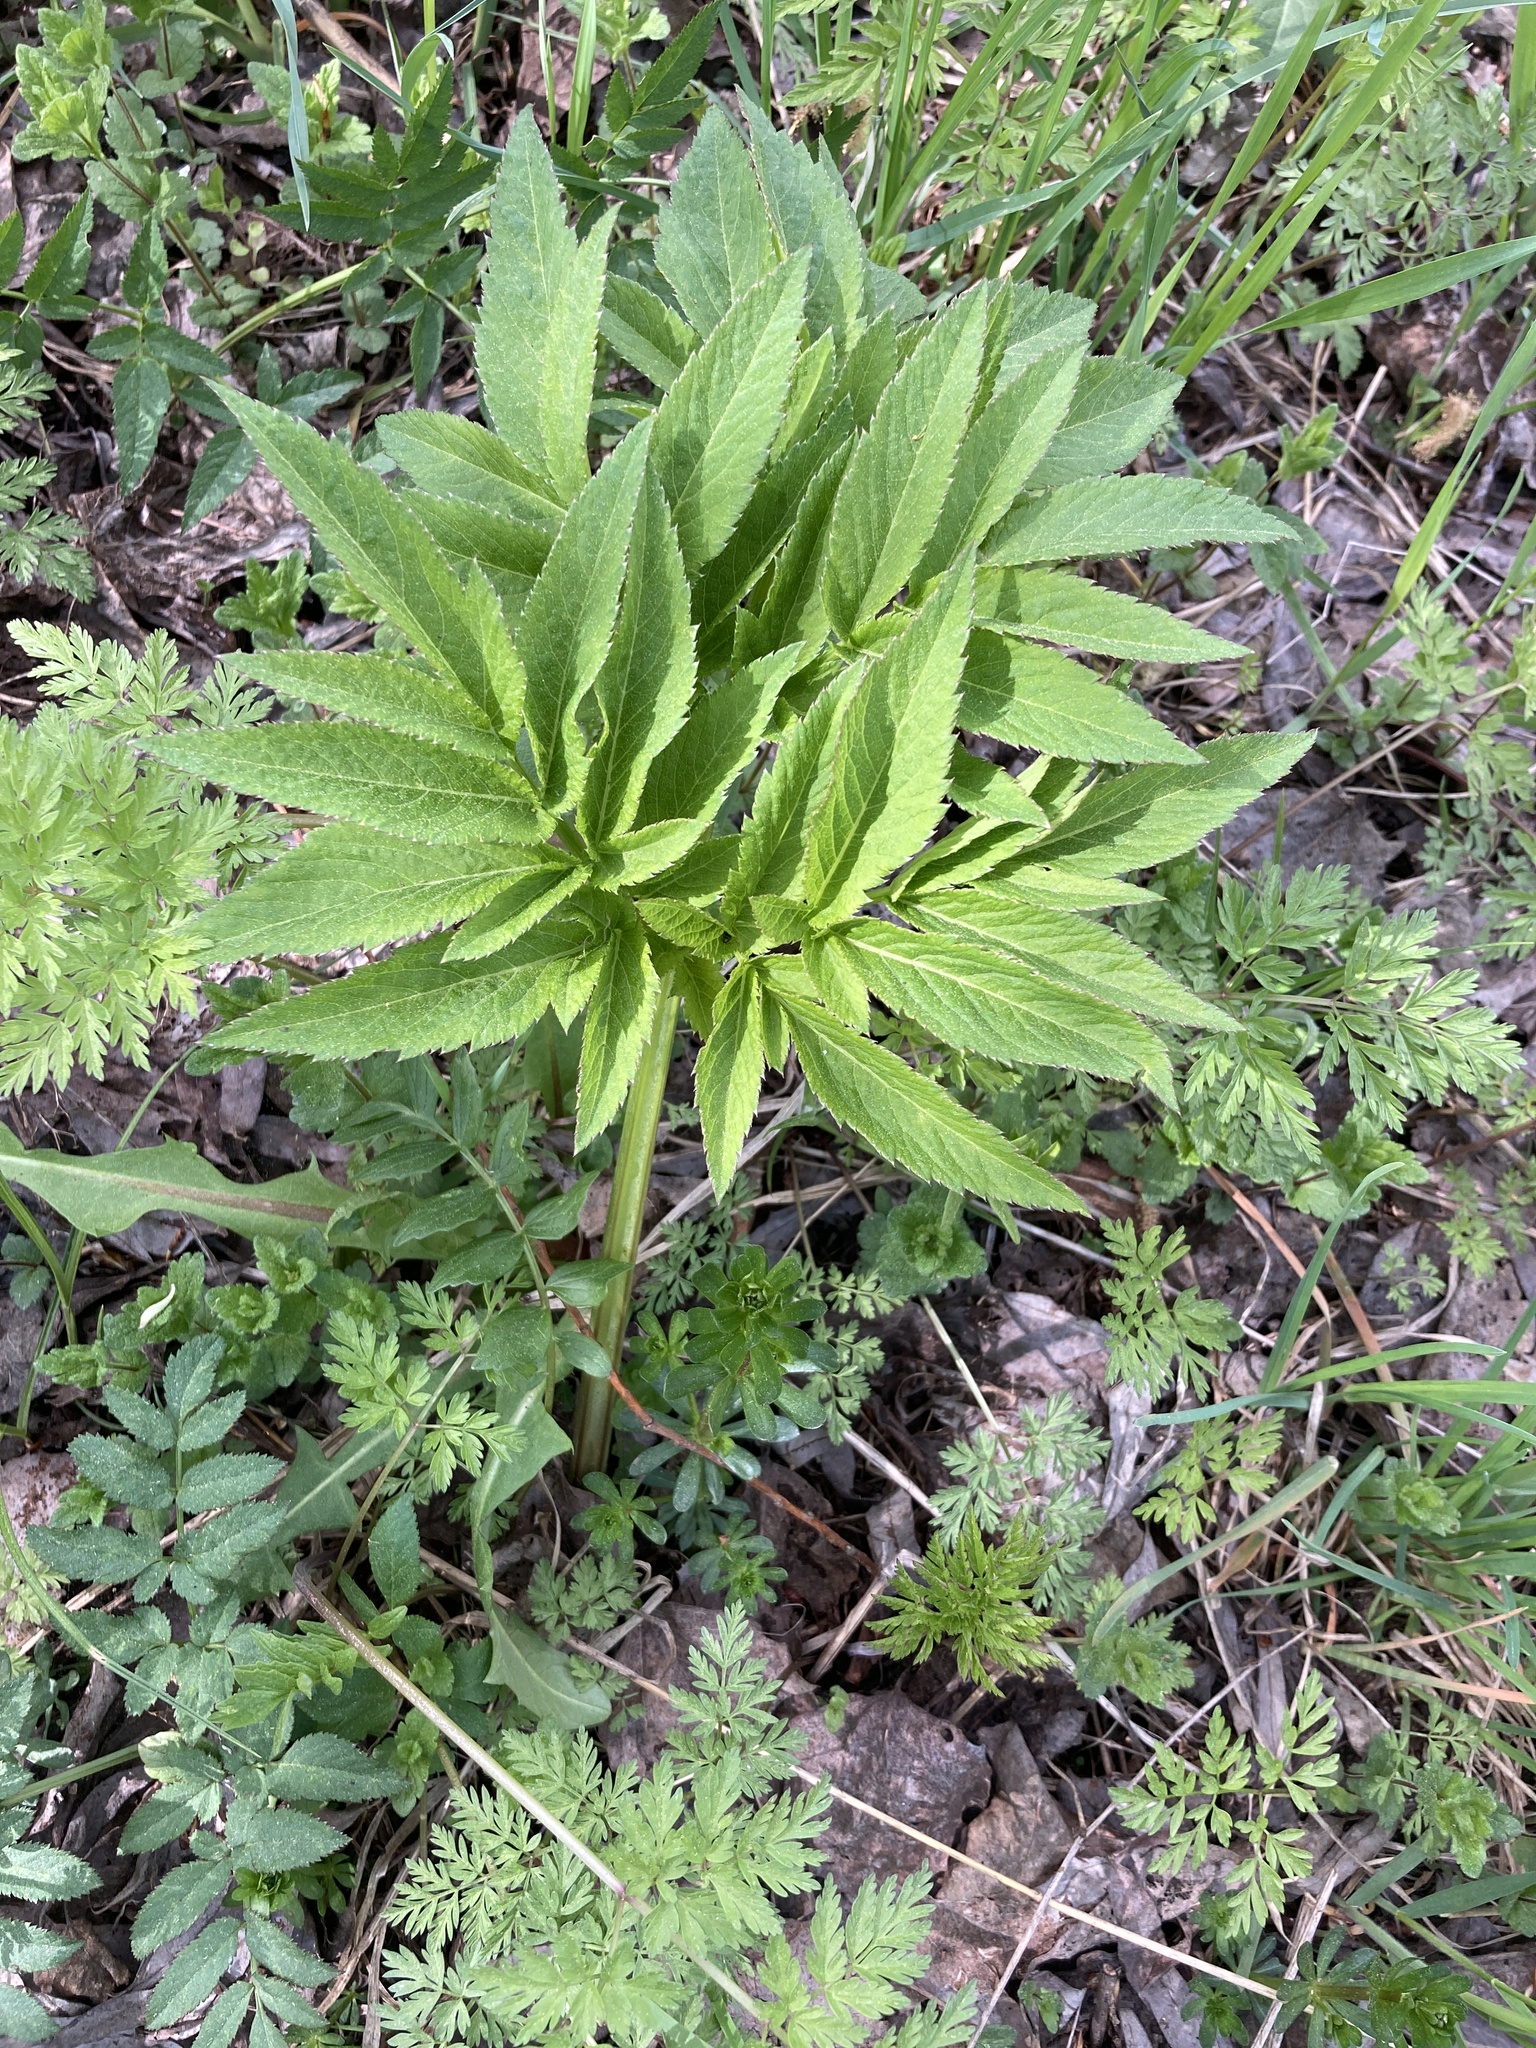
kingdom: Plantae
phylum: Tracheophyta
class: Magnoliopsida
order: Apiales
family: Apiaceae
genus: Angelica
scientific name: Angelica sylvestris
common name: Wild angelica
